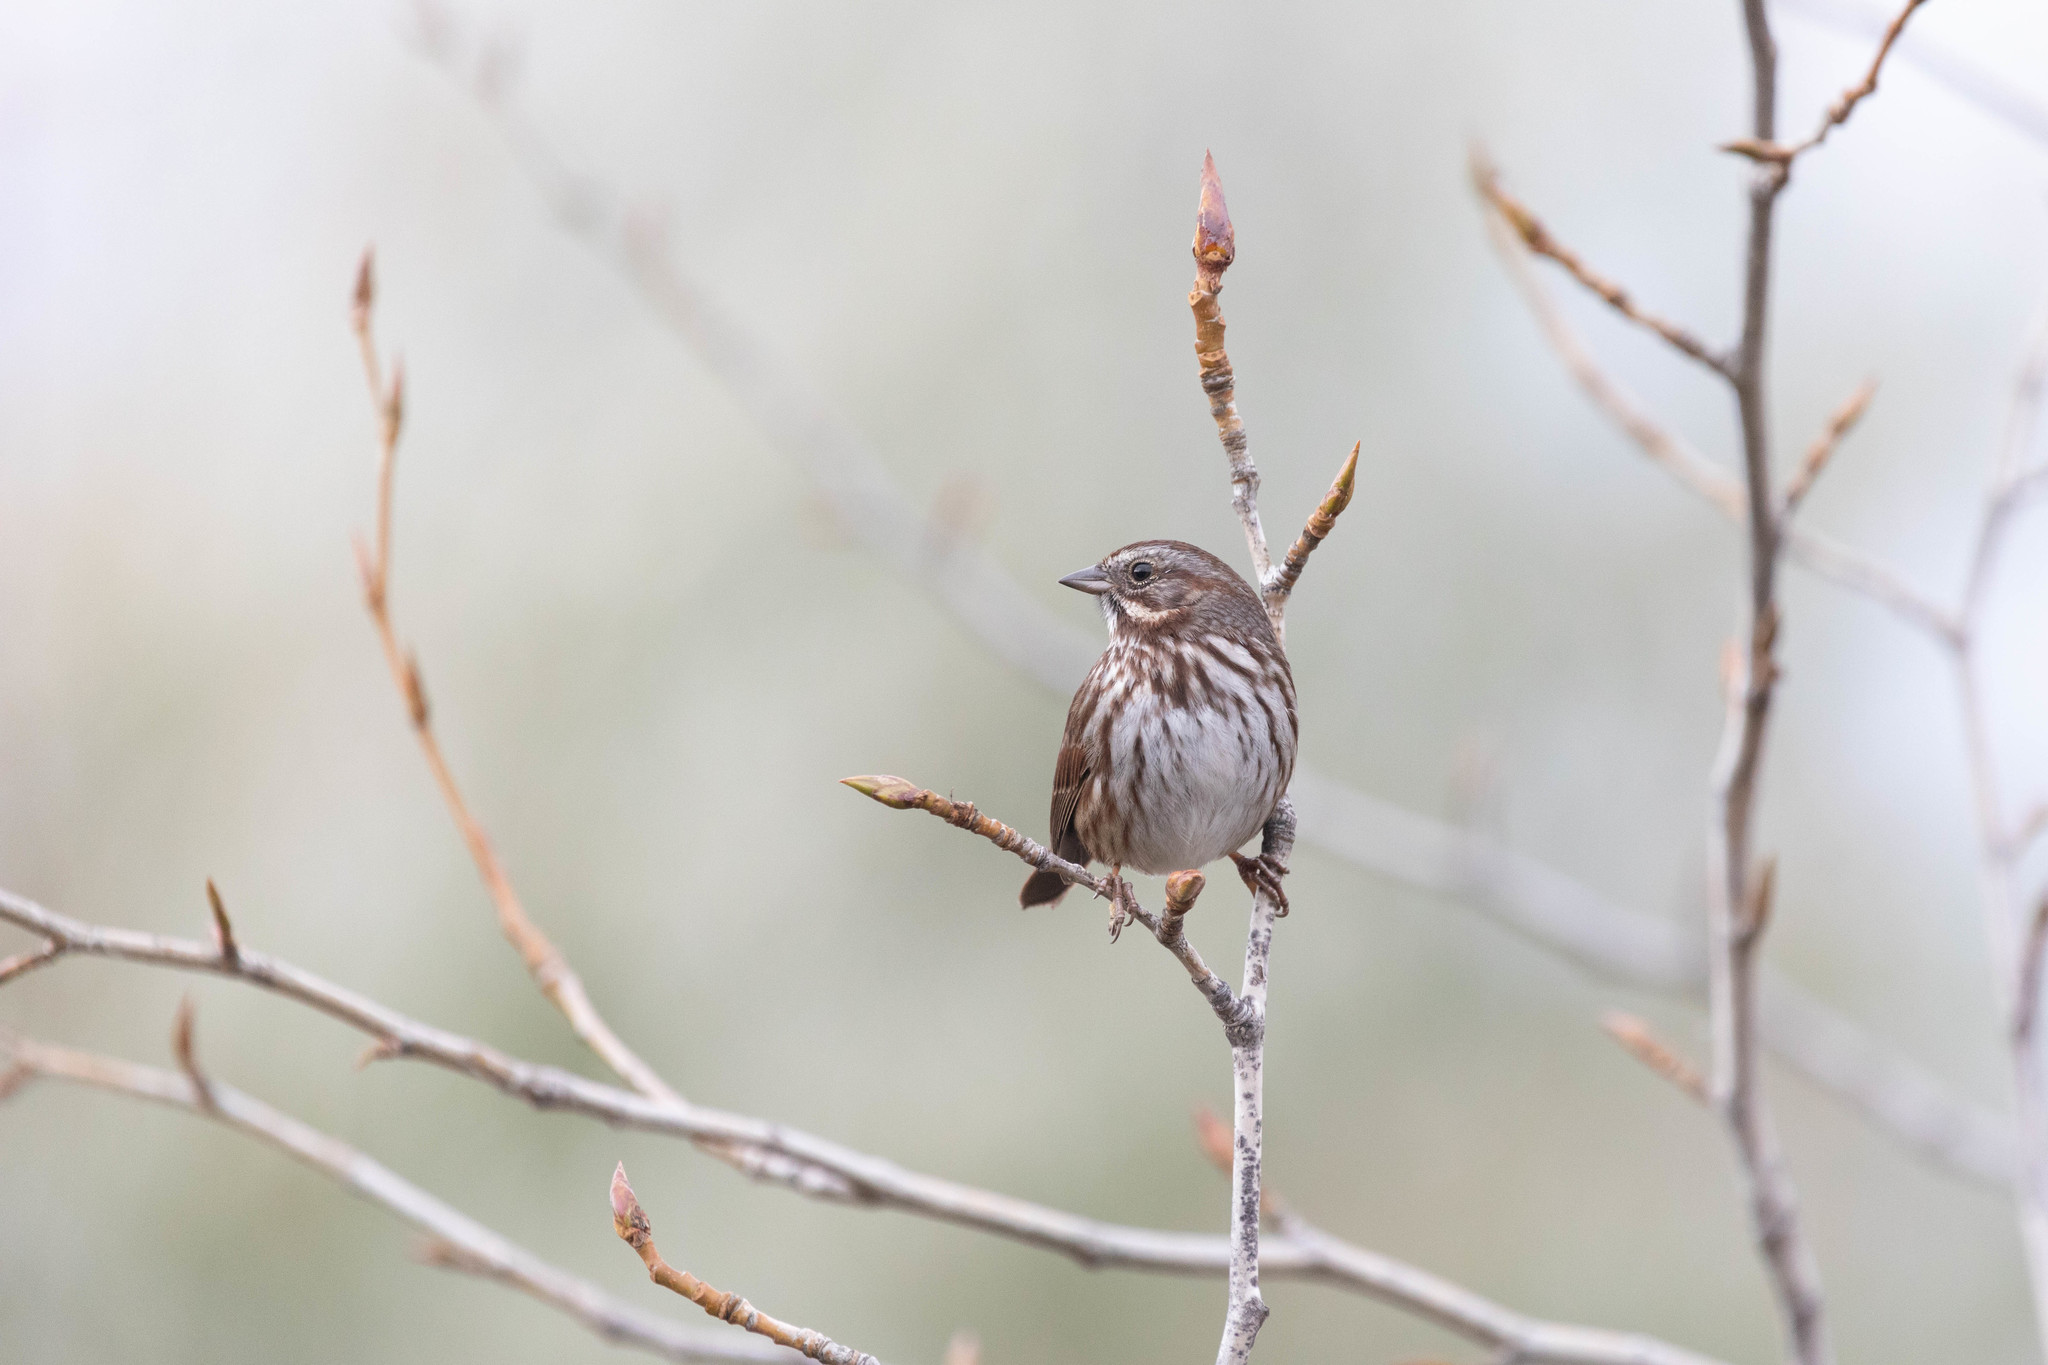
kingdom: Animalia
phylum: Chordata
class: Aves
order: Passeriformes
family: Passerellidae
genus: Melospiza
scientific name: Melospiza melodia
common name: Song sparrow
